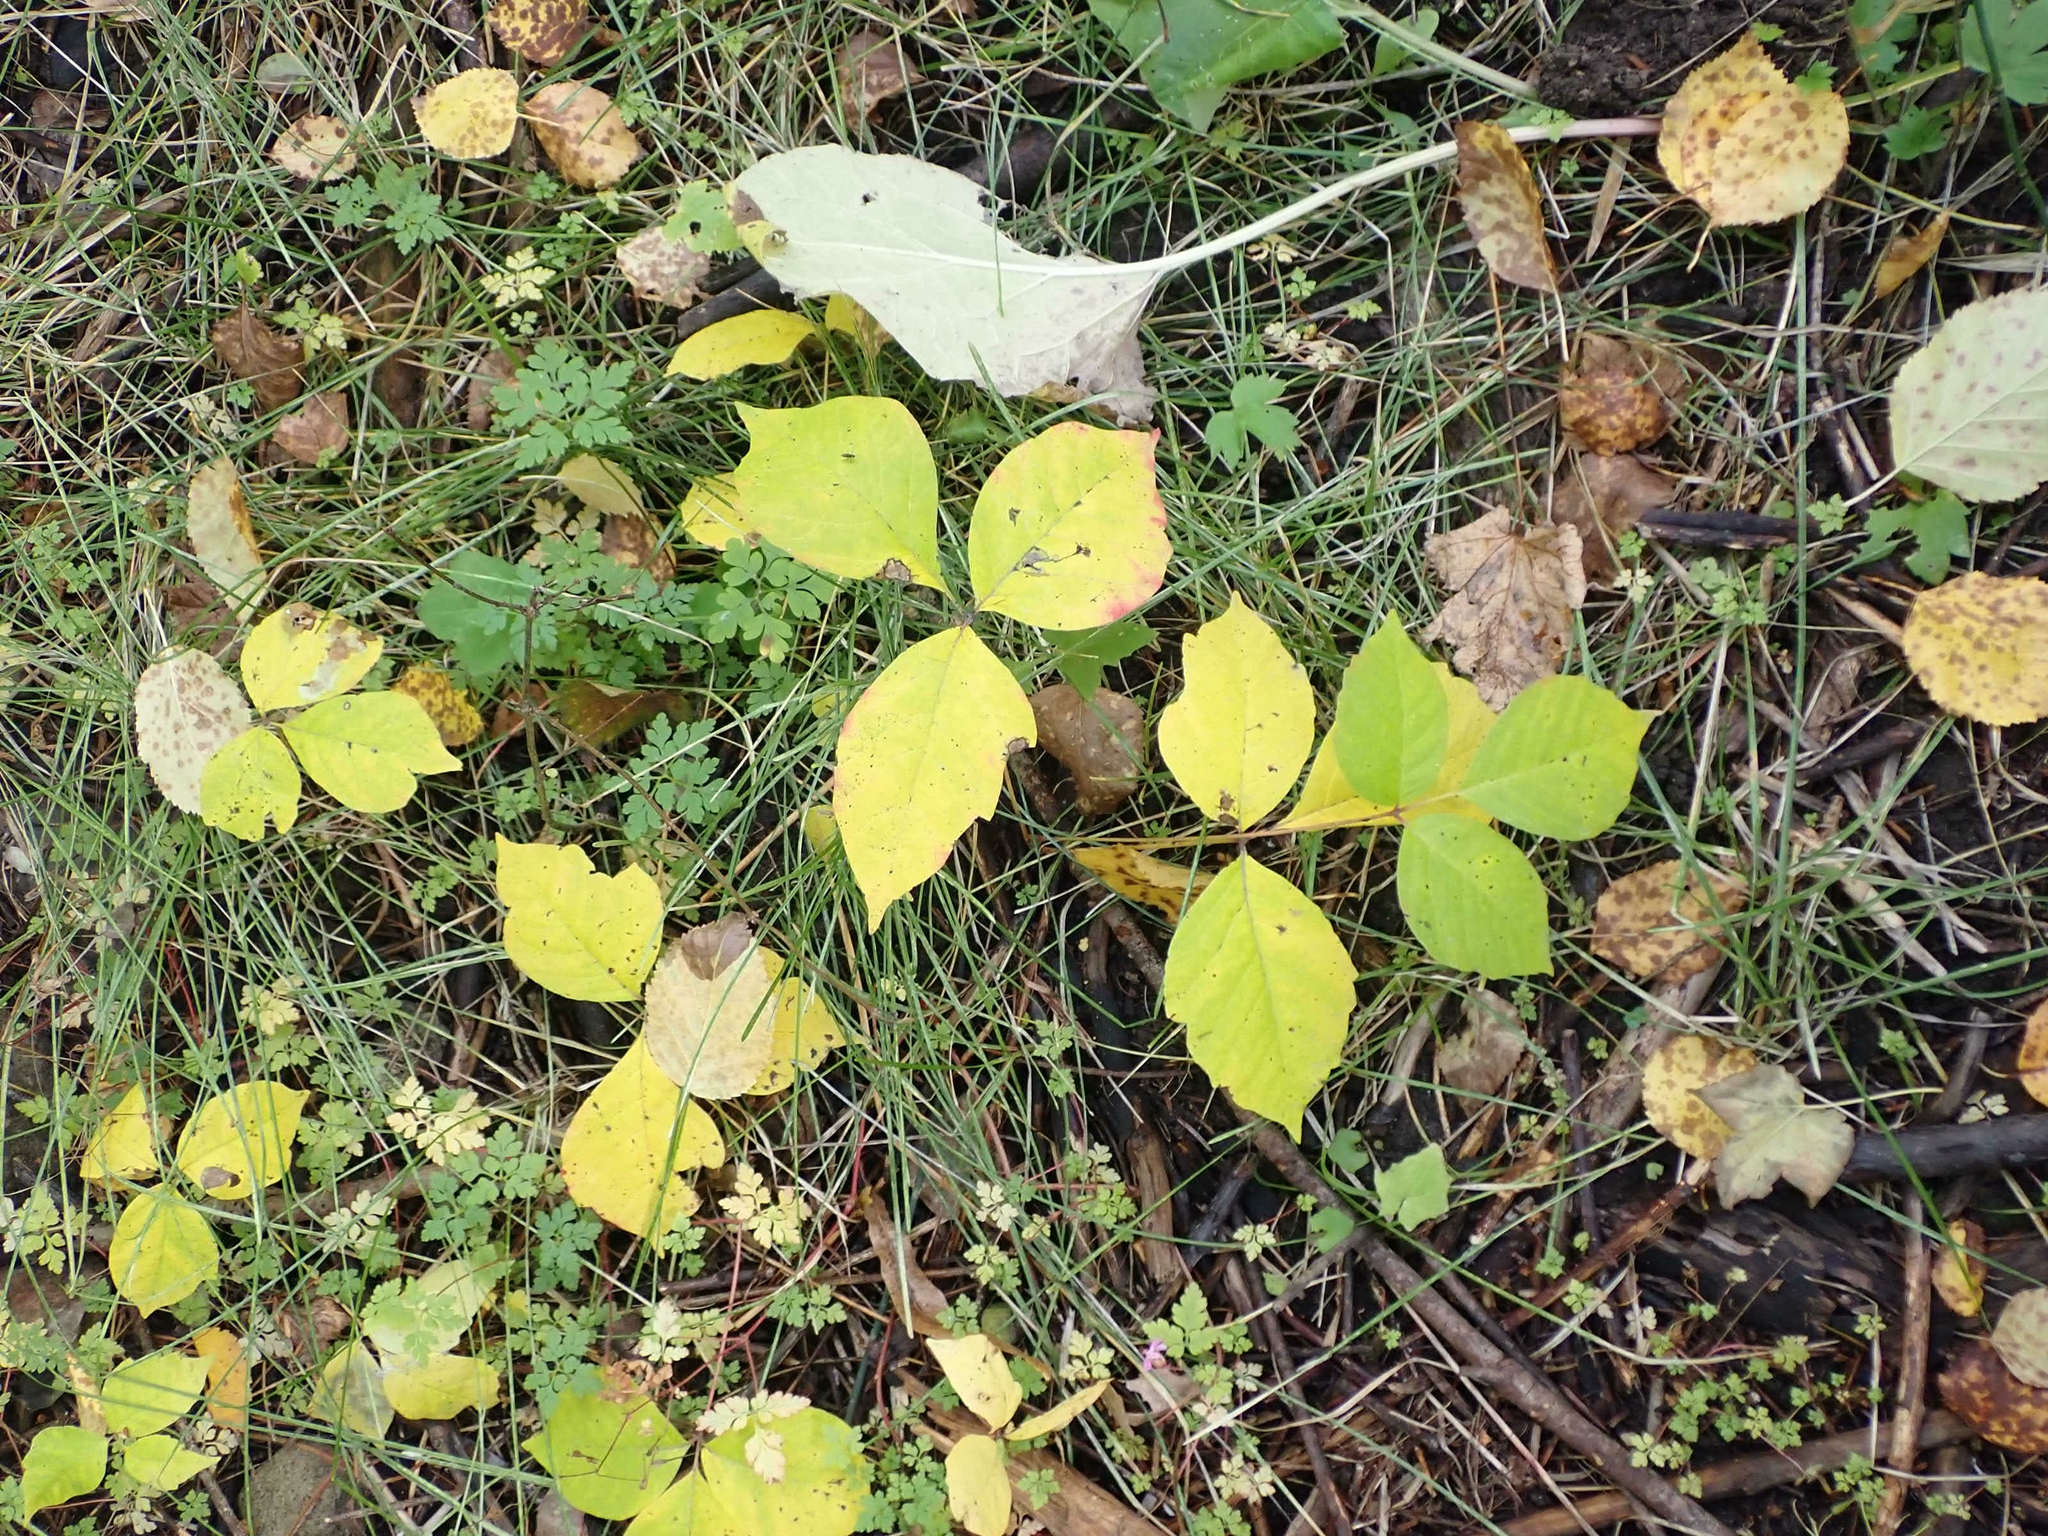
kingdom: Plantae
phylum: Tracheophyta
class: Magnoliopsida
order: Sapindales
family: Anacardiaceae
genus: Toxicodendron
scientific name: Toxicodendron rydbergii
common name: Rydberg's poison-ivy
